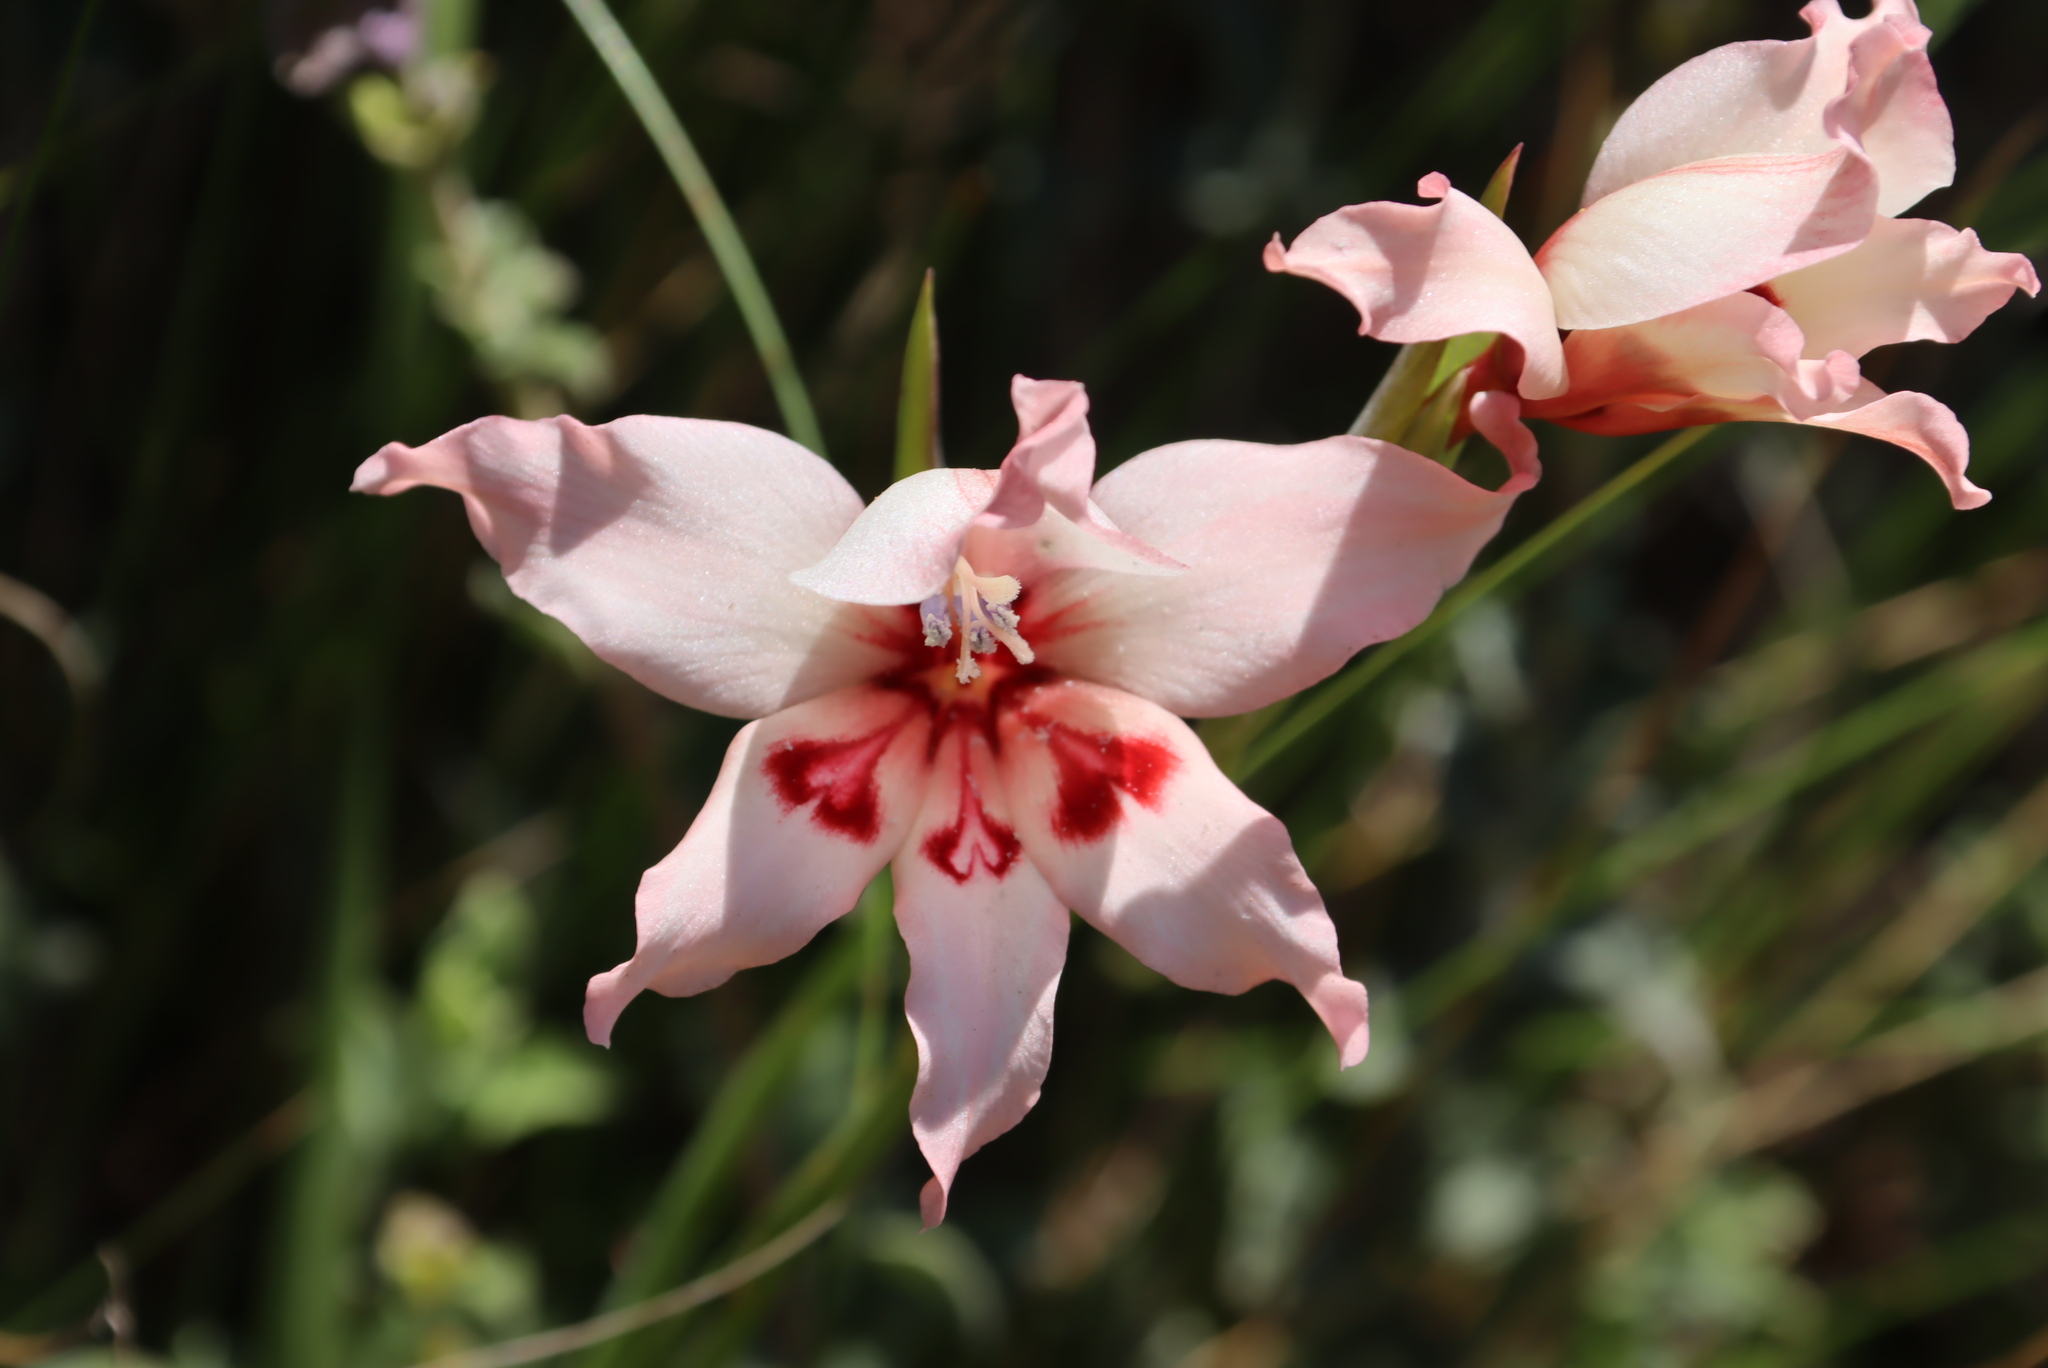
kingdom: Plantae
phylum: Tracheophyta
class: Liliopsida
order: Asparagales
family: Iridaceae
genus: Gladiolus
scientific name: Gladiolus carneus
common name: Painted-lady
